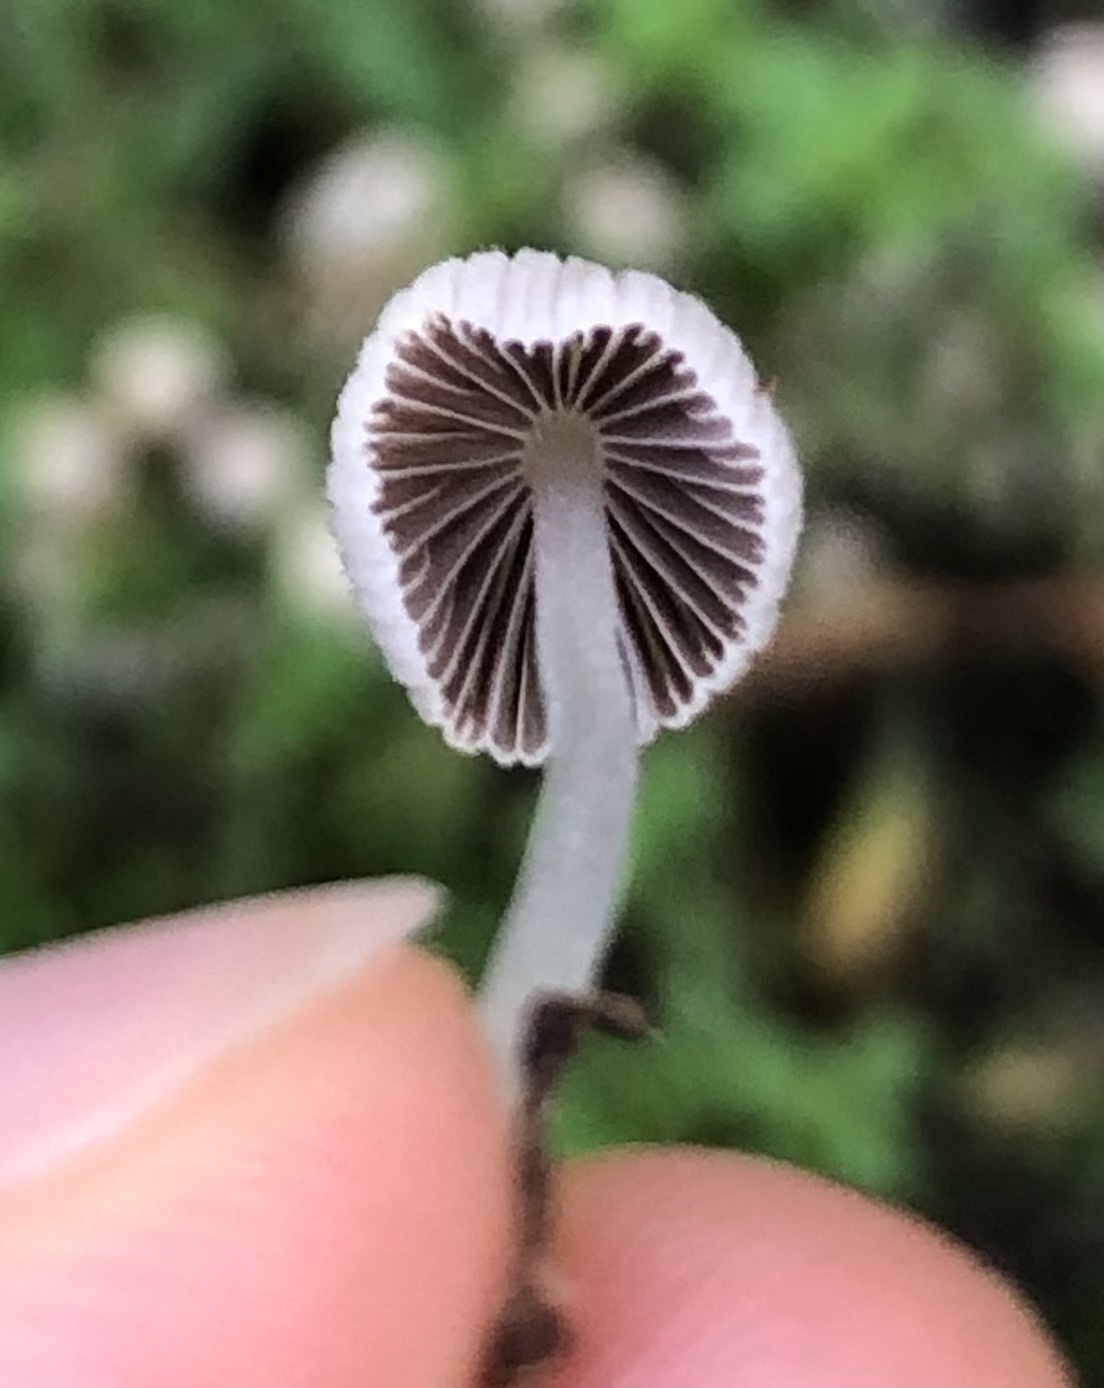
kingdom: Fungi
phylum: Basidiomycota
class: Agaricomycetes
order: Agaricales
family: Psathyrellaceae
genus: Coprinellus
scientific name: Coprinellus disseminatus
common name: Fairies' bonnets
